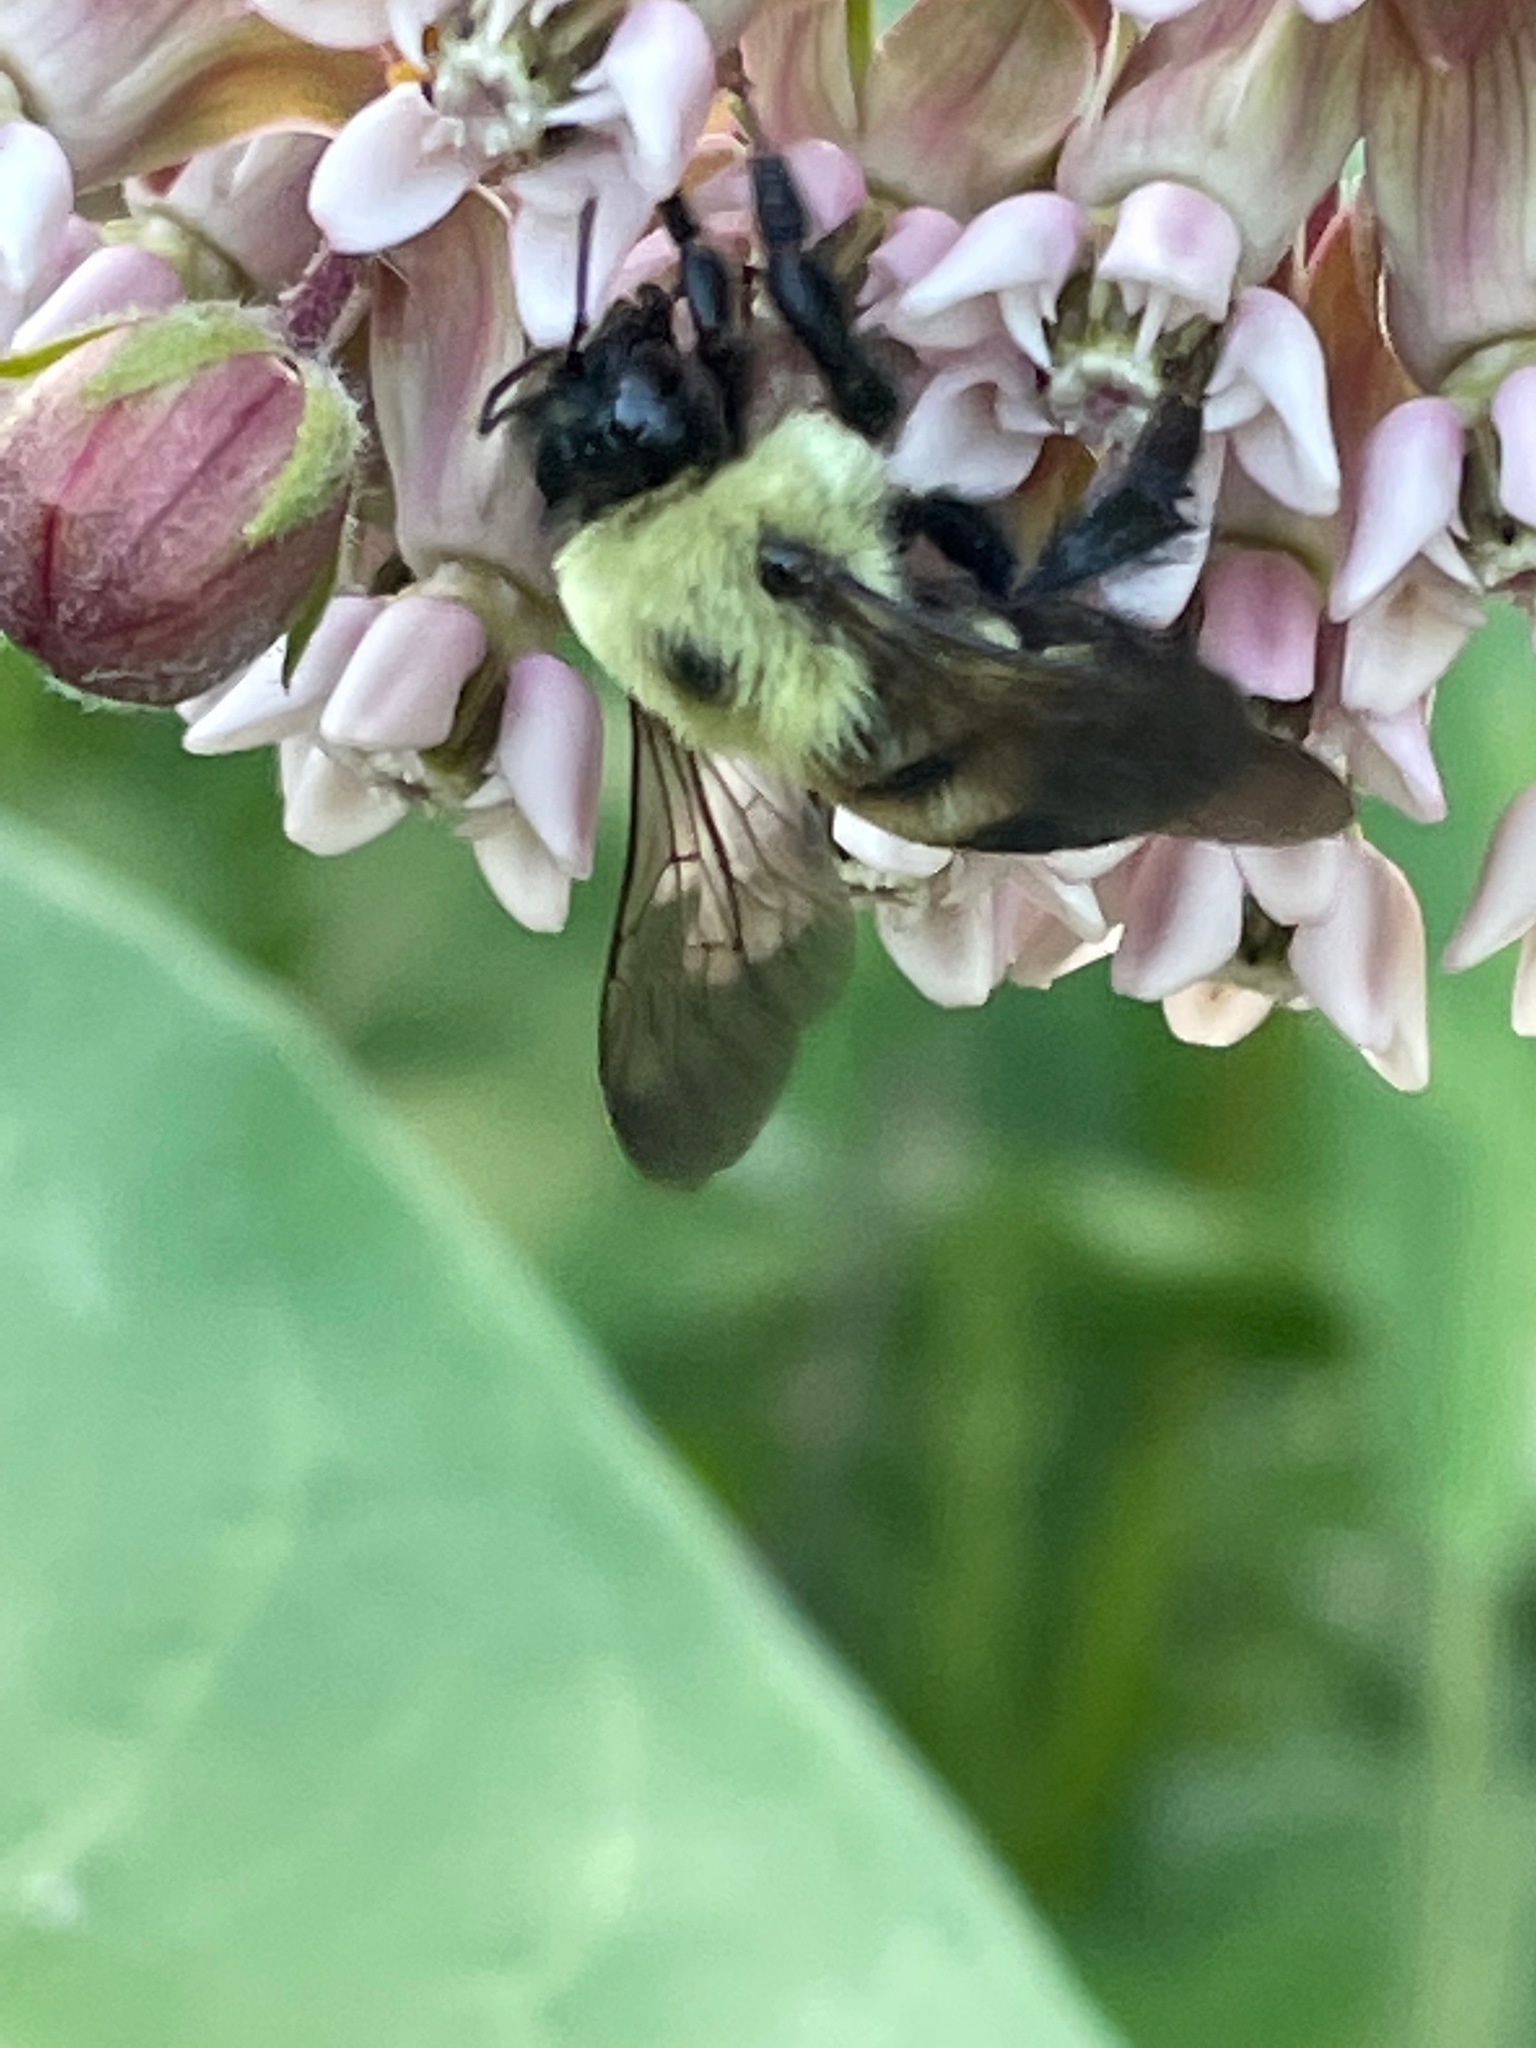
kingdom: Animalia
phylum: Arthropoda
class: Insecta
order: Hymenoptera
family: Apidae
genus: Bombus
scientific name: Bombus griseocollis
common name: Brown-belted bumble bee
